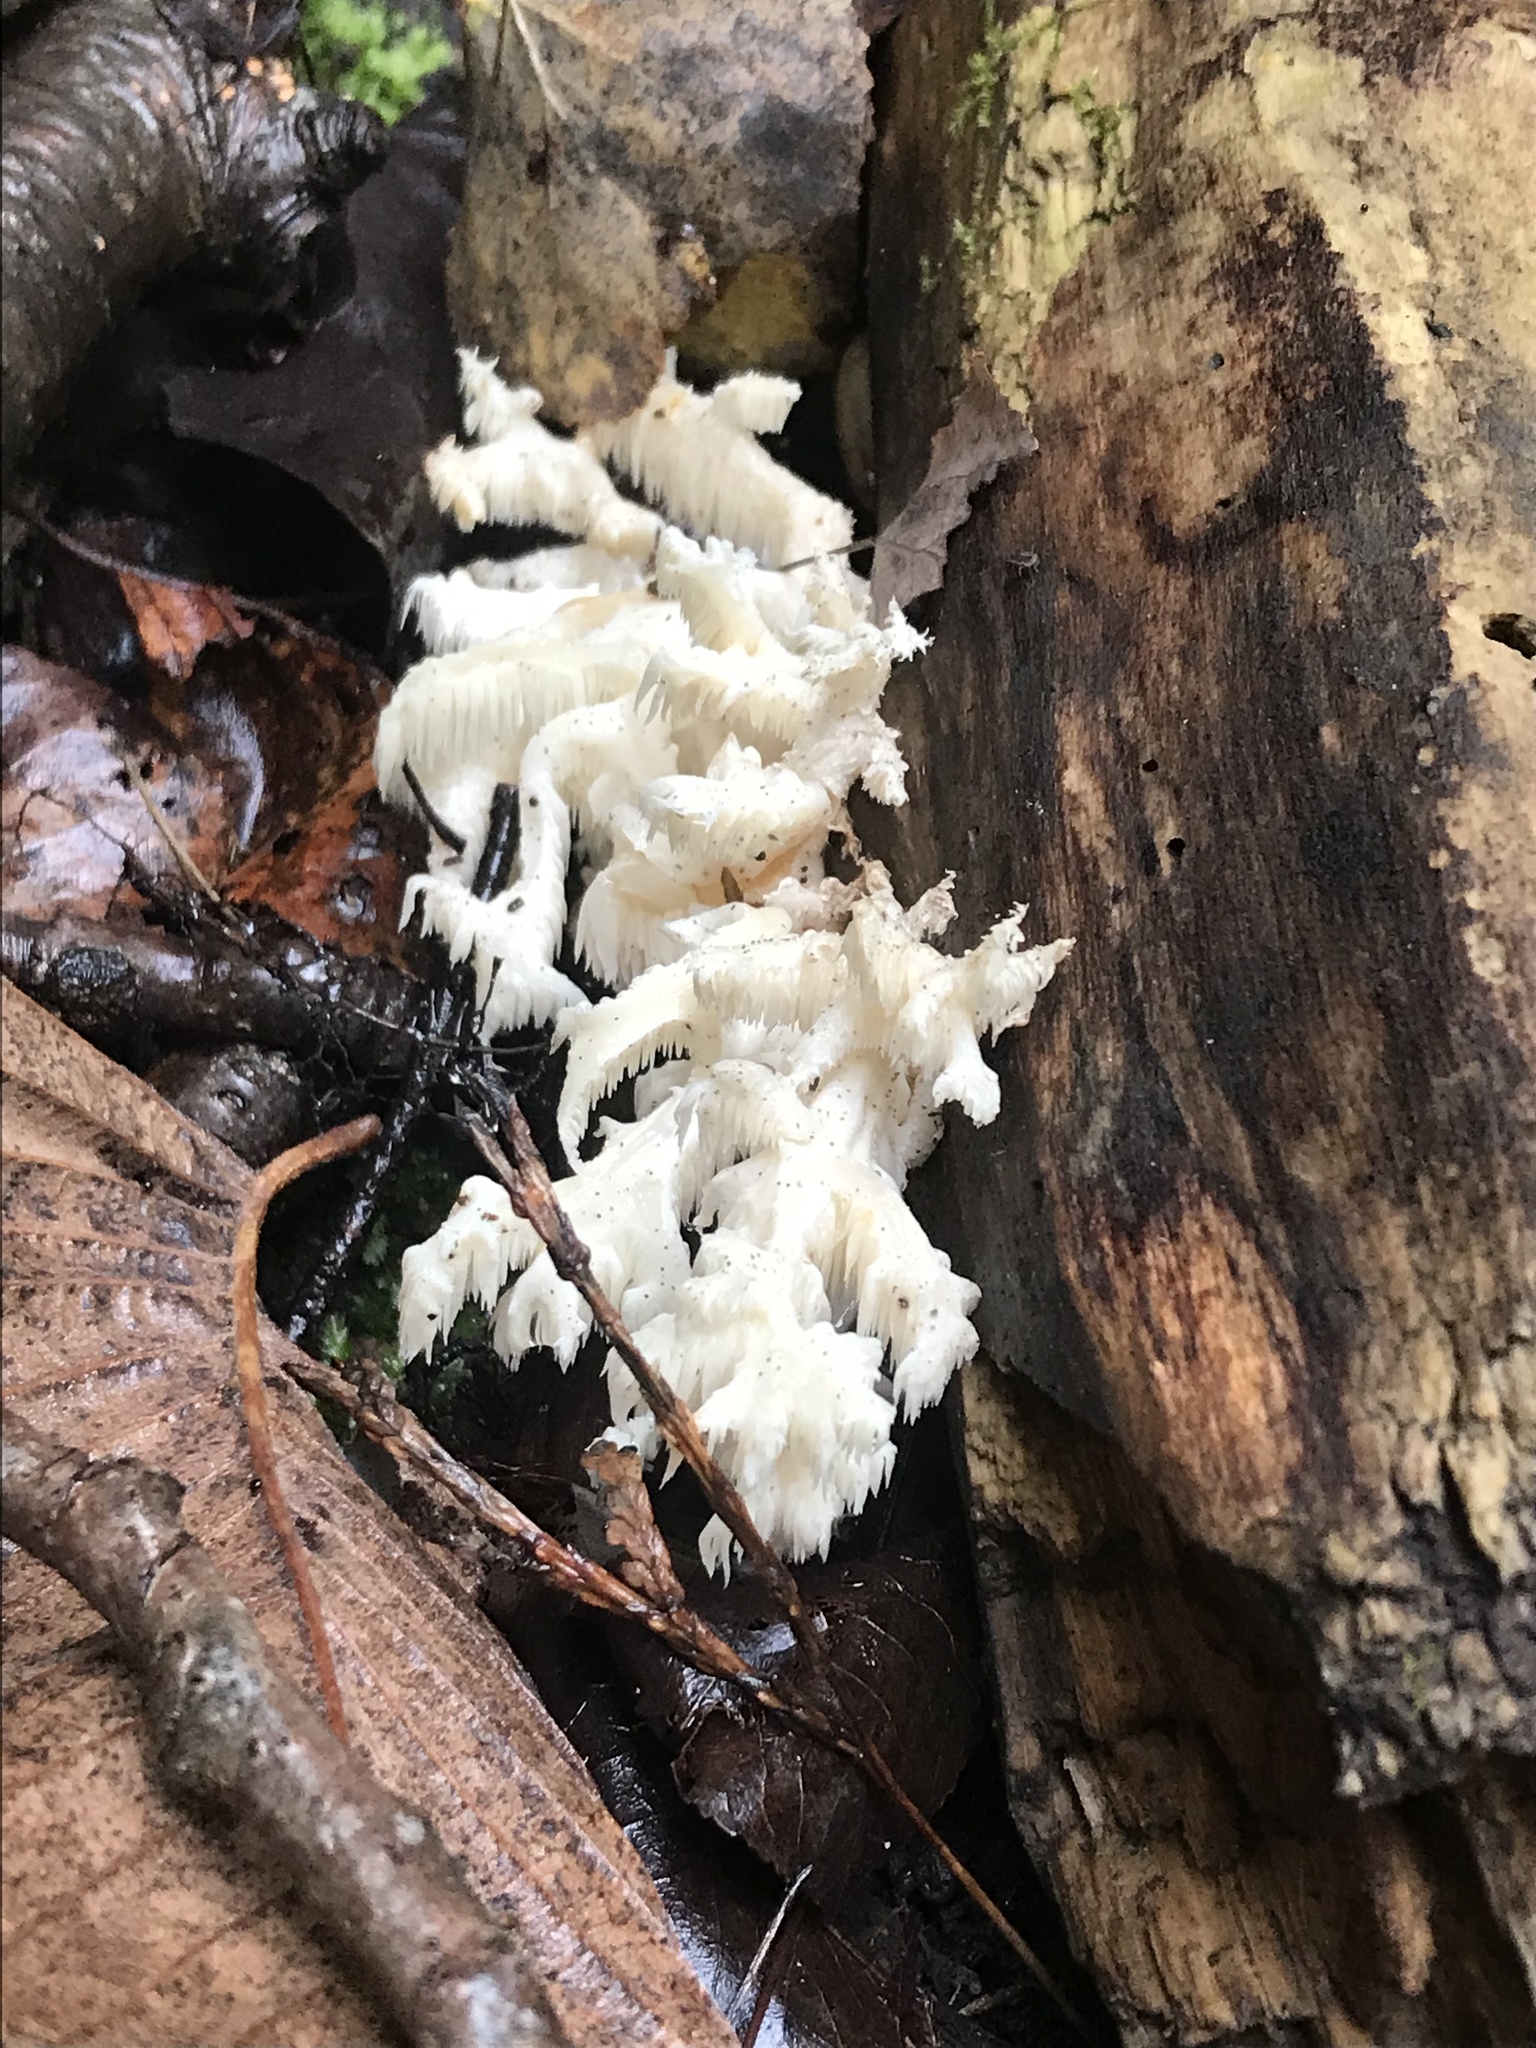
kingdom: Fungi
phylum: Basidiomycota
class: Agaricomycetes
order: Russulales
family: Hericiaceae
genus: Hericium
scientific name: Hericium coralloides
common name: Coral tooth
